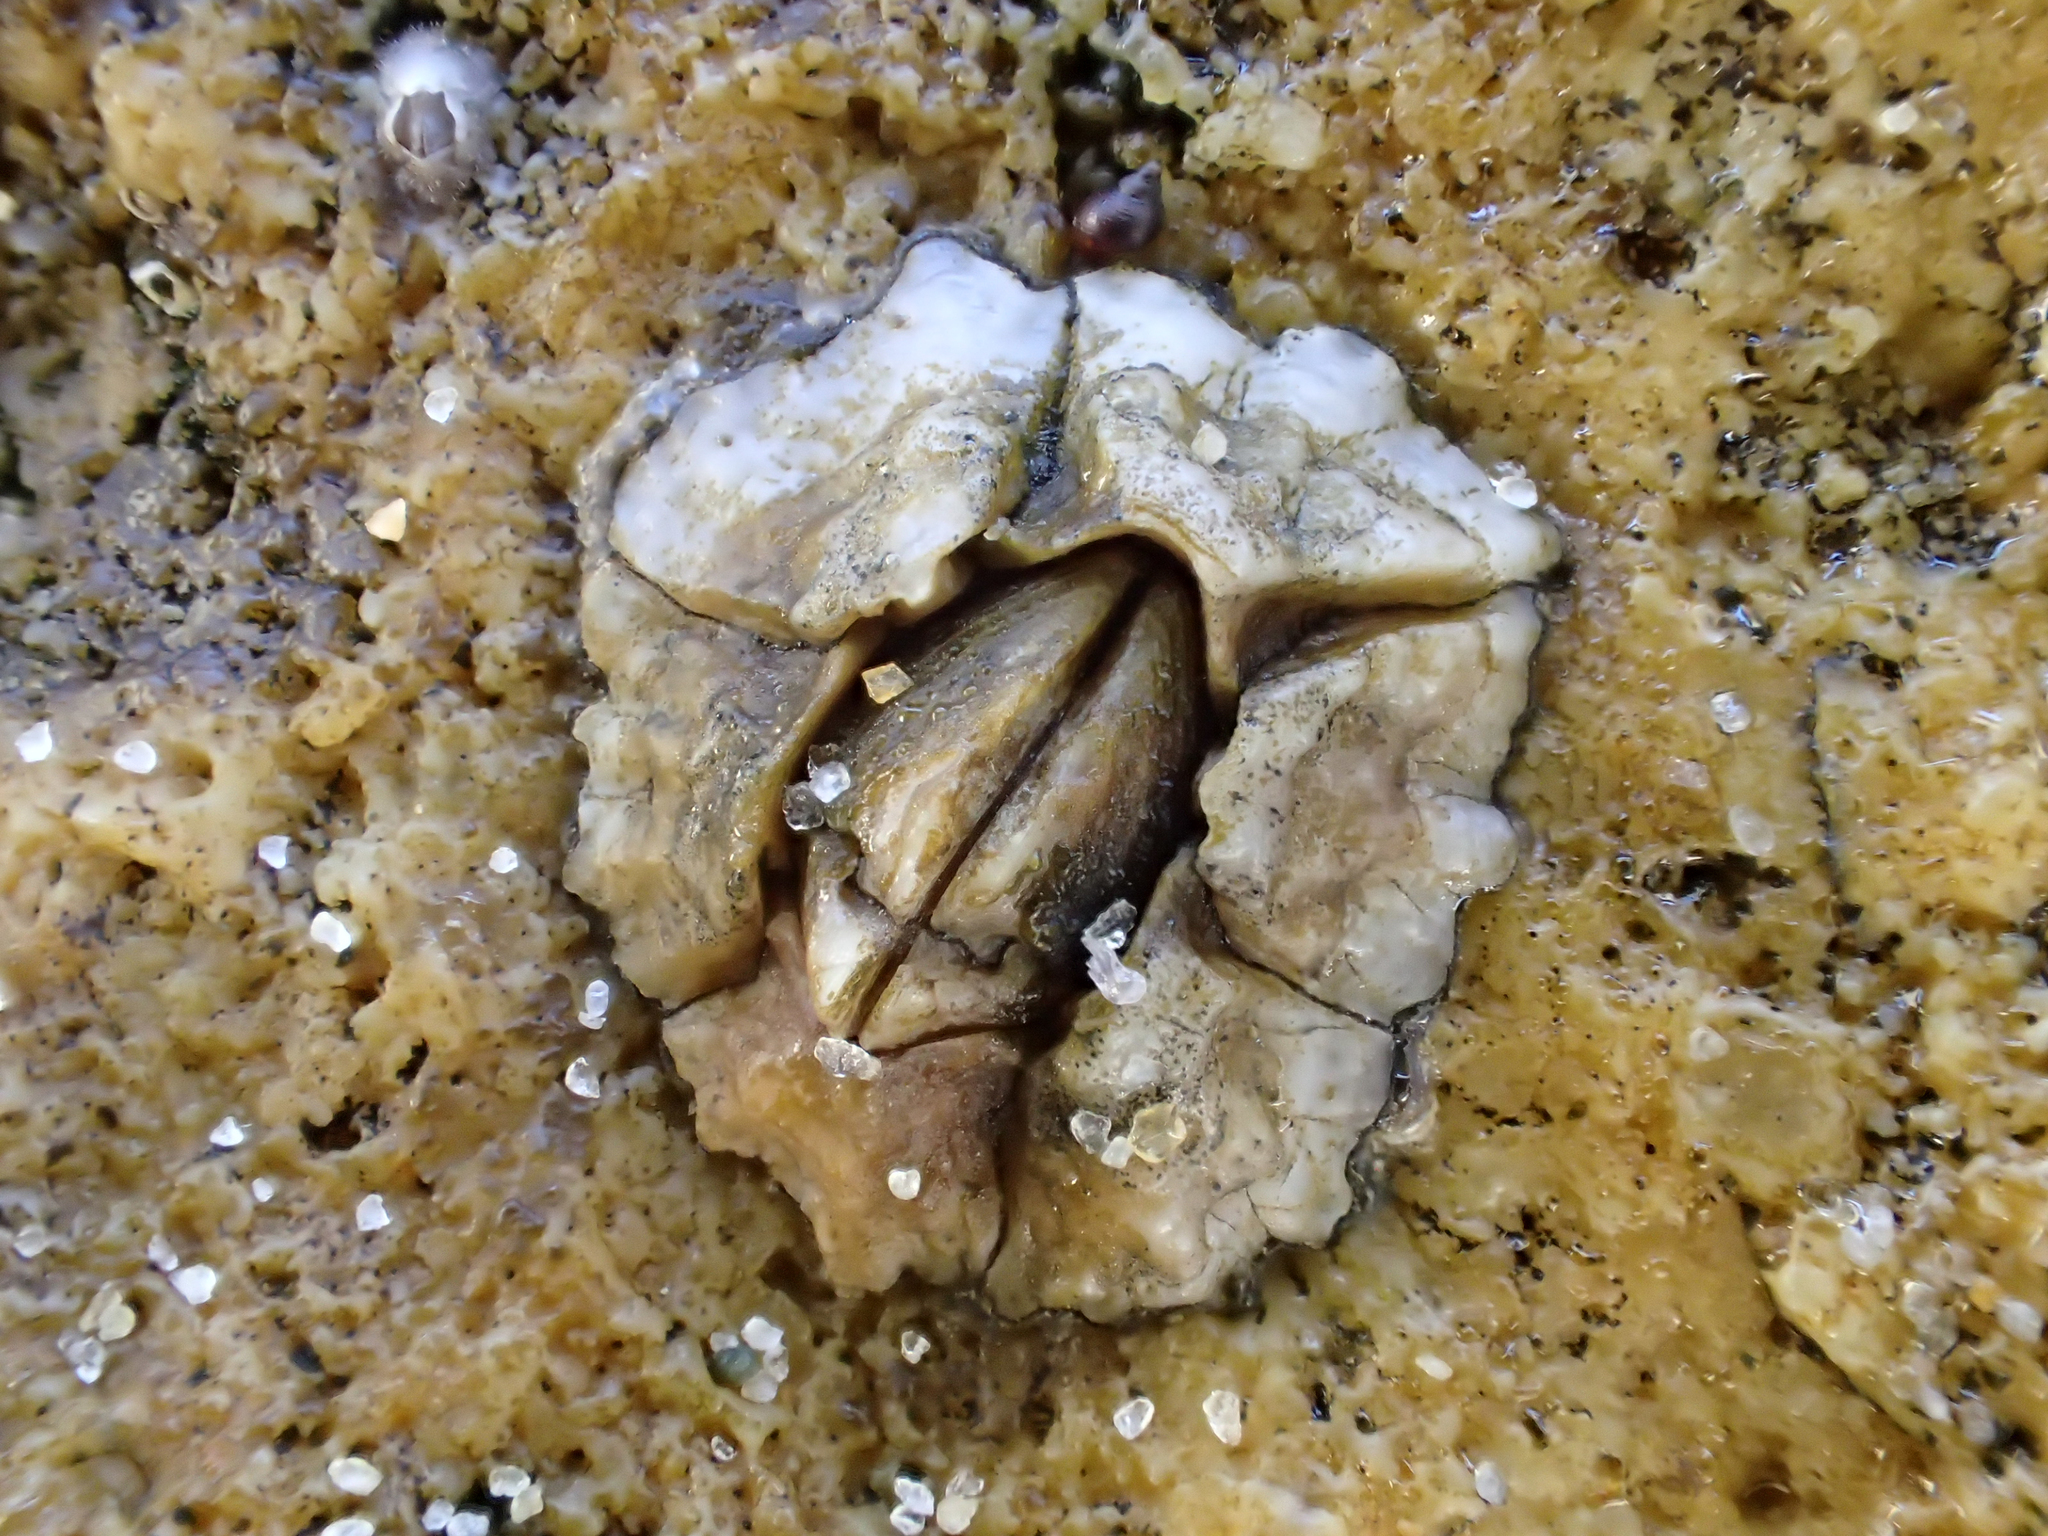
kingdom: Animalia
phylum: Arthropoda
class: Maxillopoda
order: Sessilia
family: Chthamalidae
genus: Chthamalus
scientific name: Chthamalus antennatus
